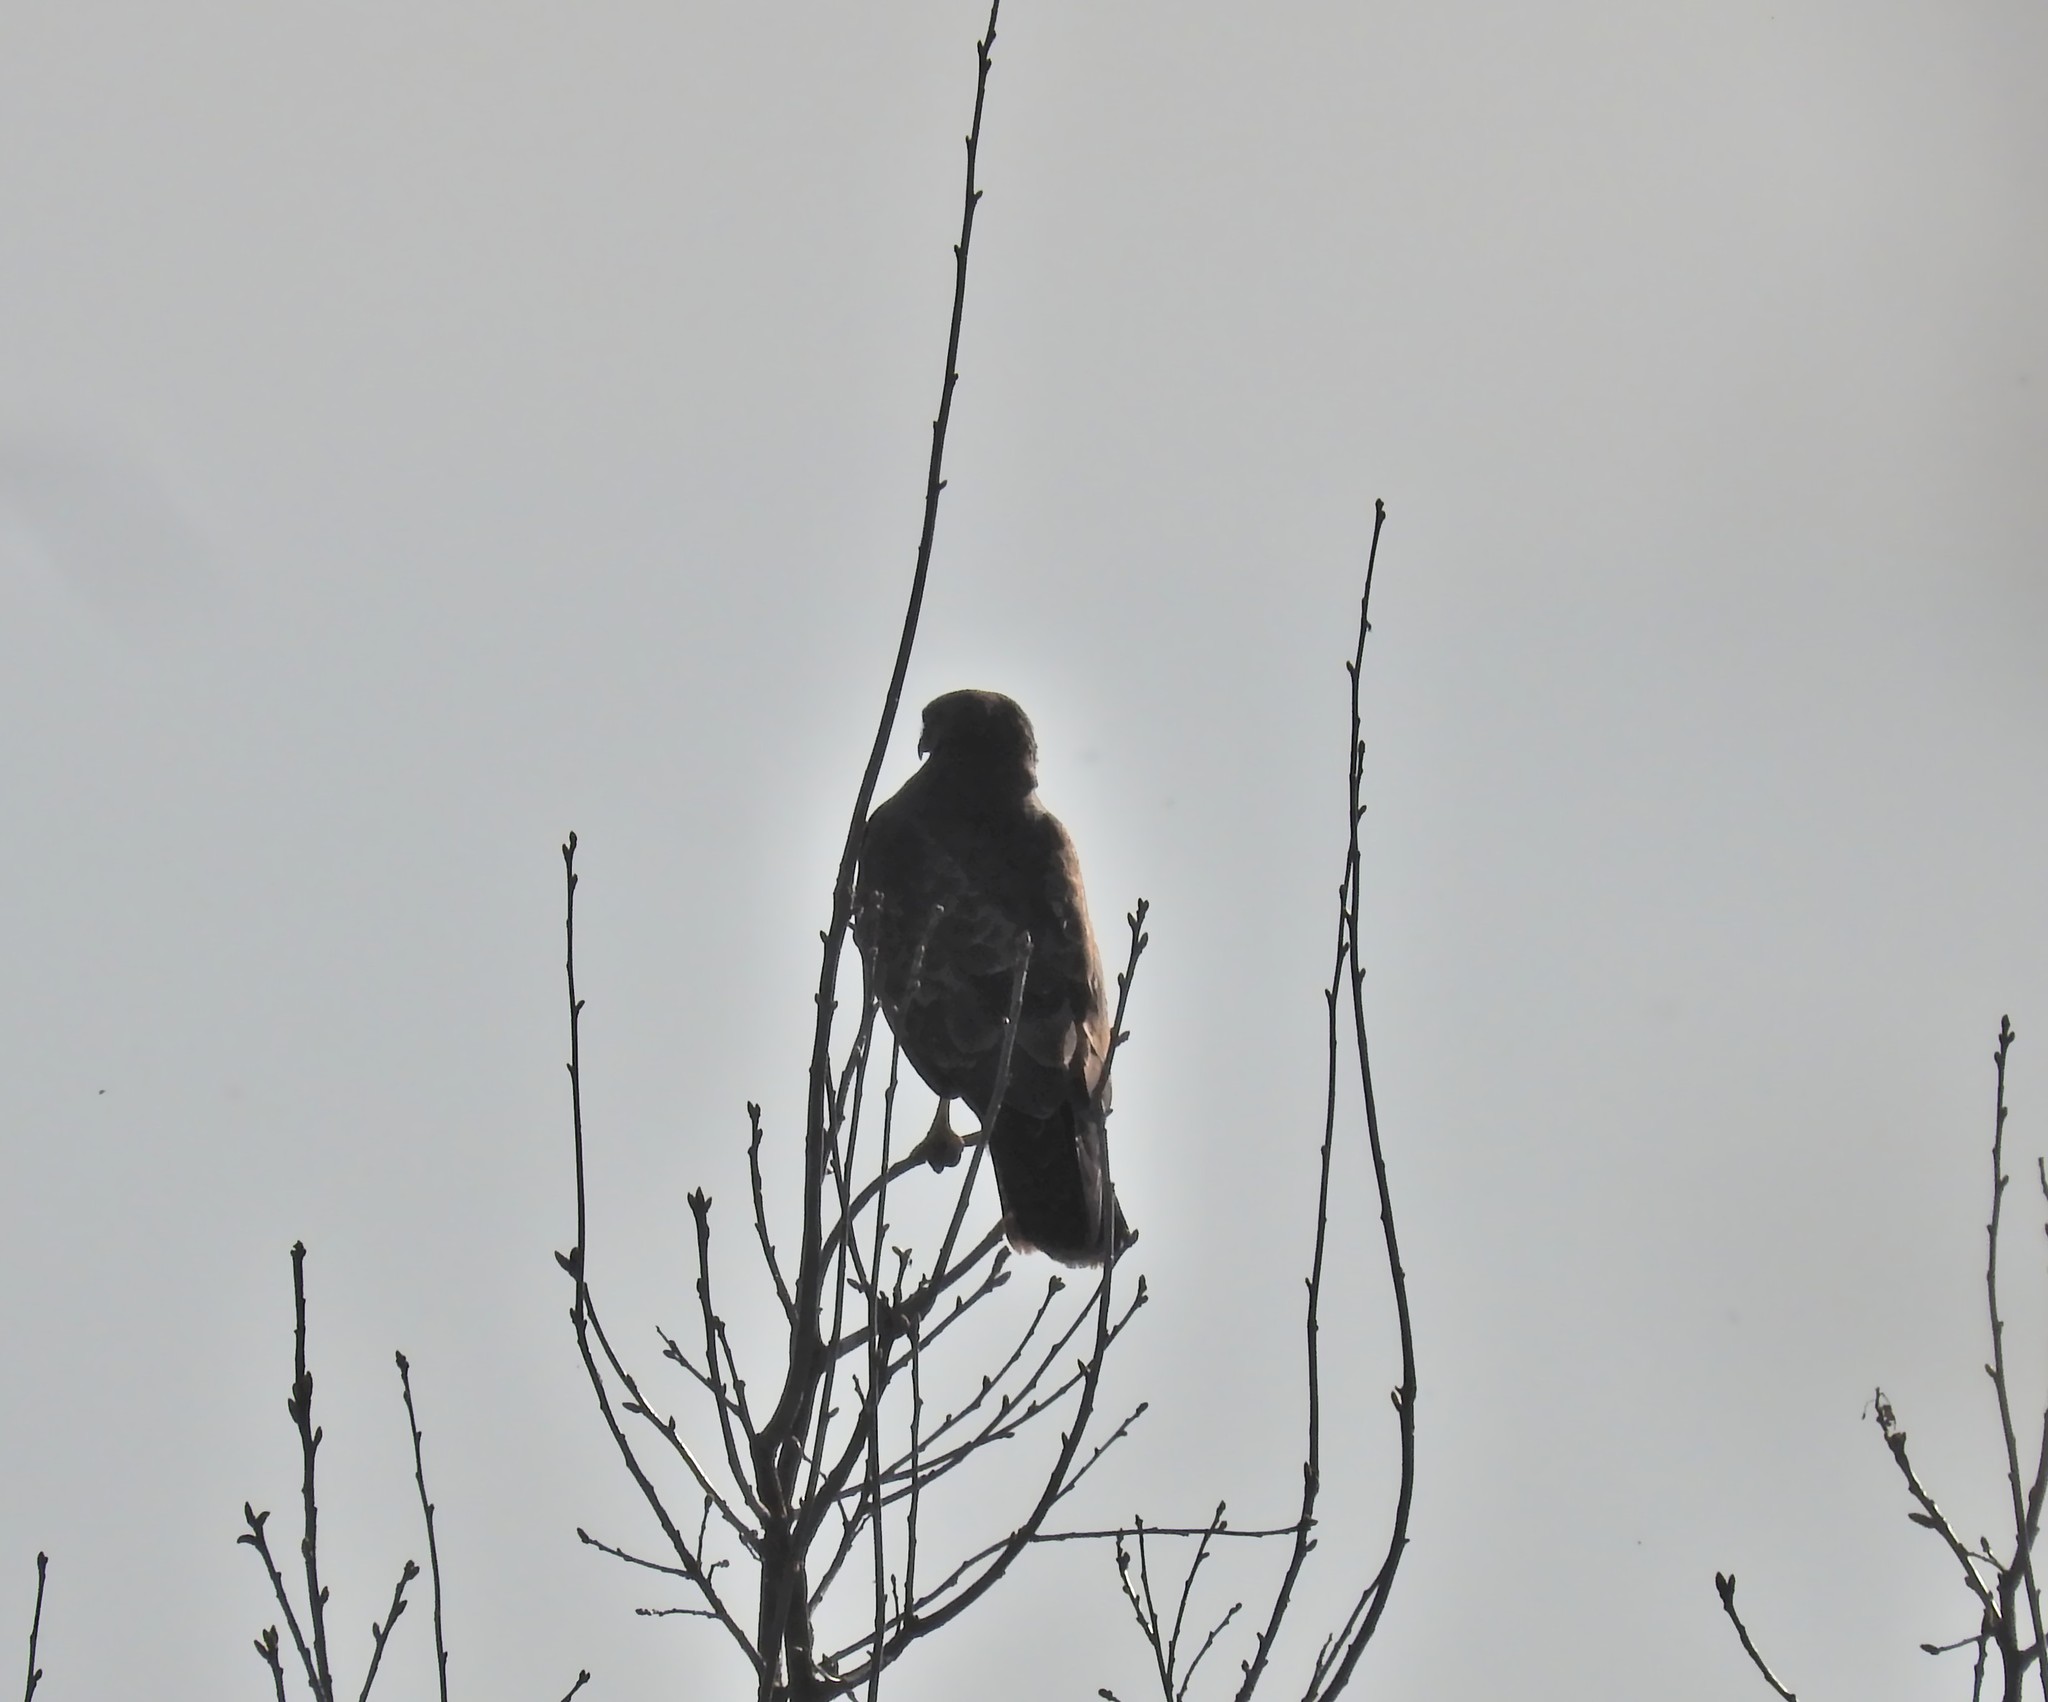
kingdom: Animalia
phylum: Chordata
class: Aves
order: Accipitriformes
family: Accipitridae
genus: Buteo
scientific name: Buteo buteo
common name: Common buzzard
